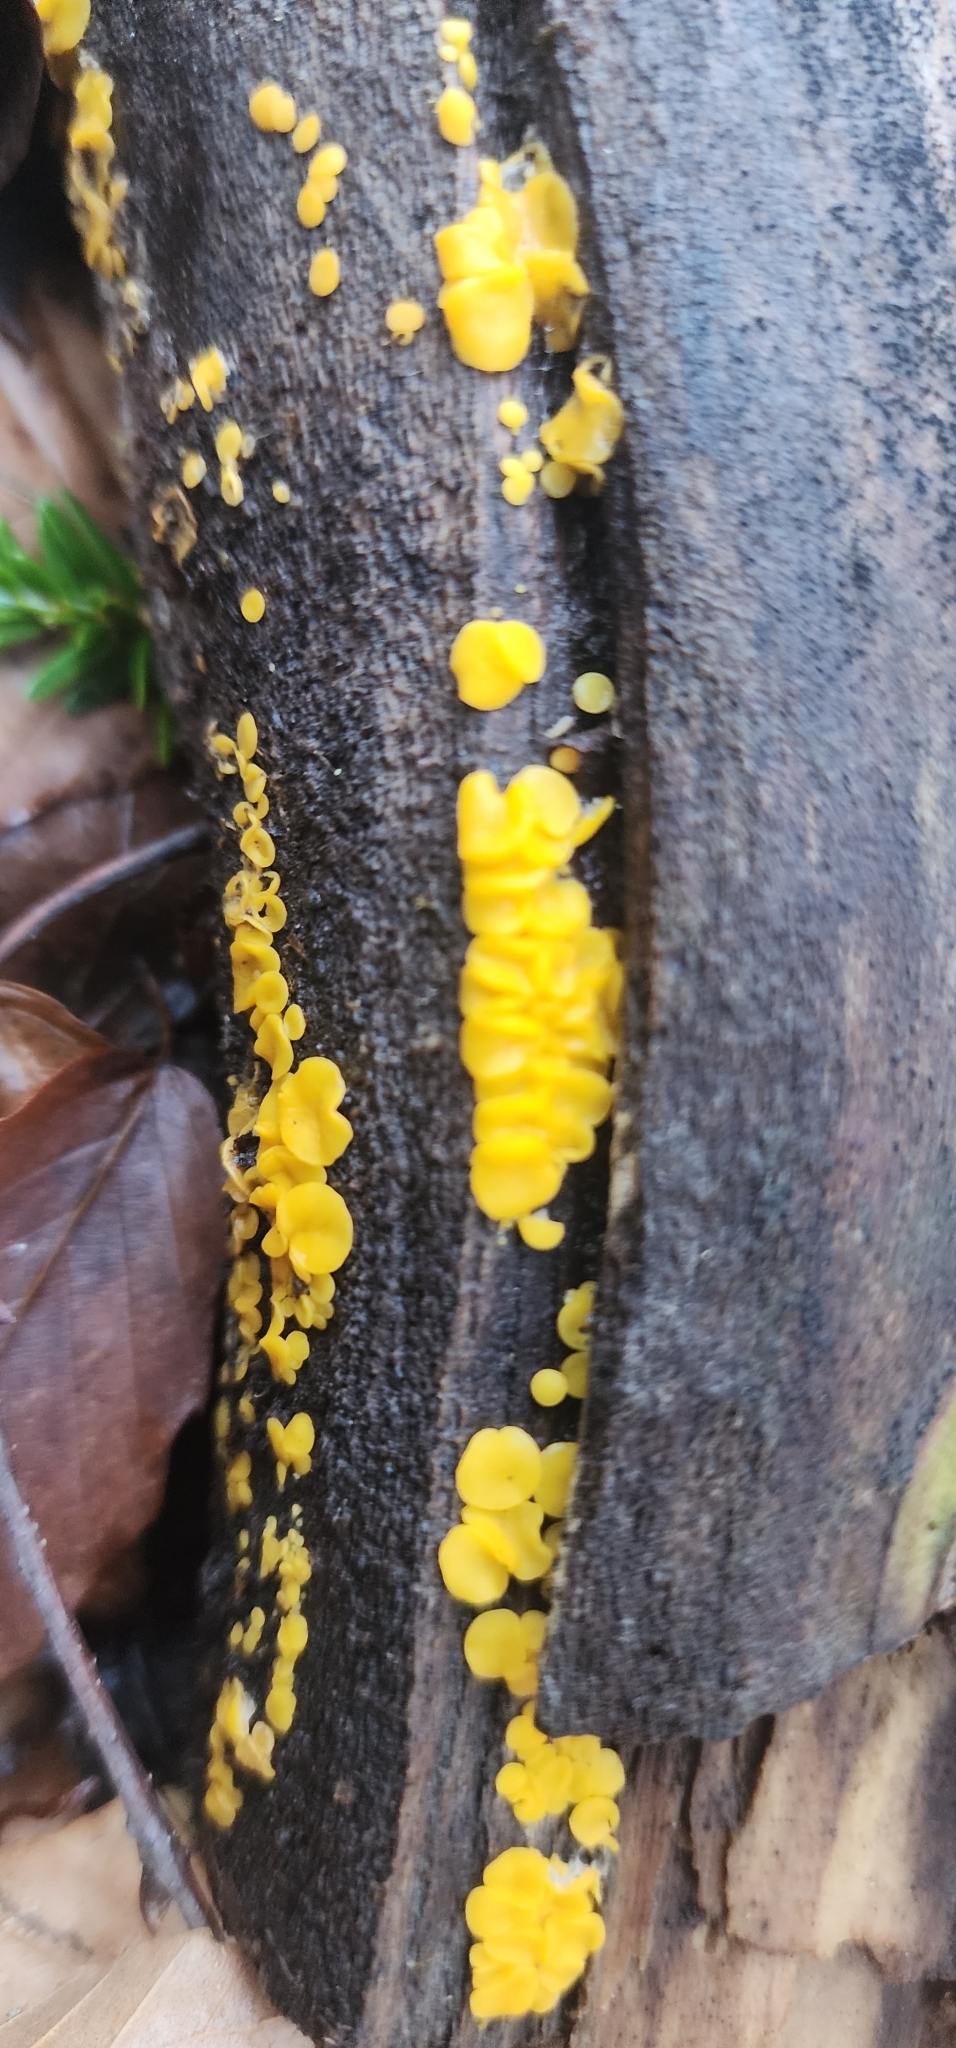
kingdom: Fungi
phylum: Ascomycota
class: Leotiomycetes
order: Helotiales
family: Pezizellaceae
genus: Calycina
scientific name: Calycina citrina
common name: Yellow fairy cups
